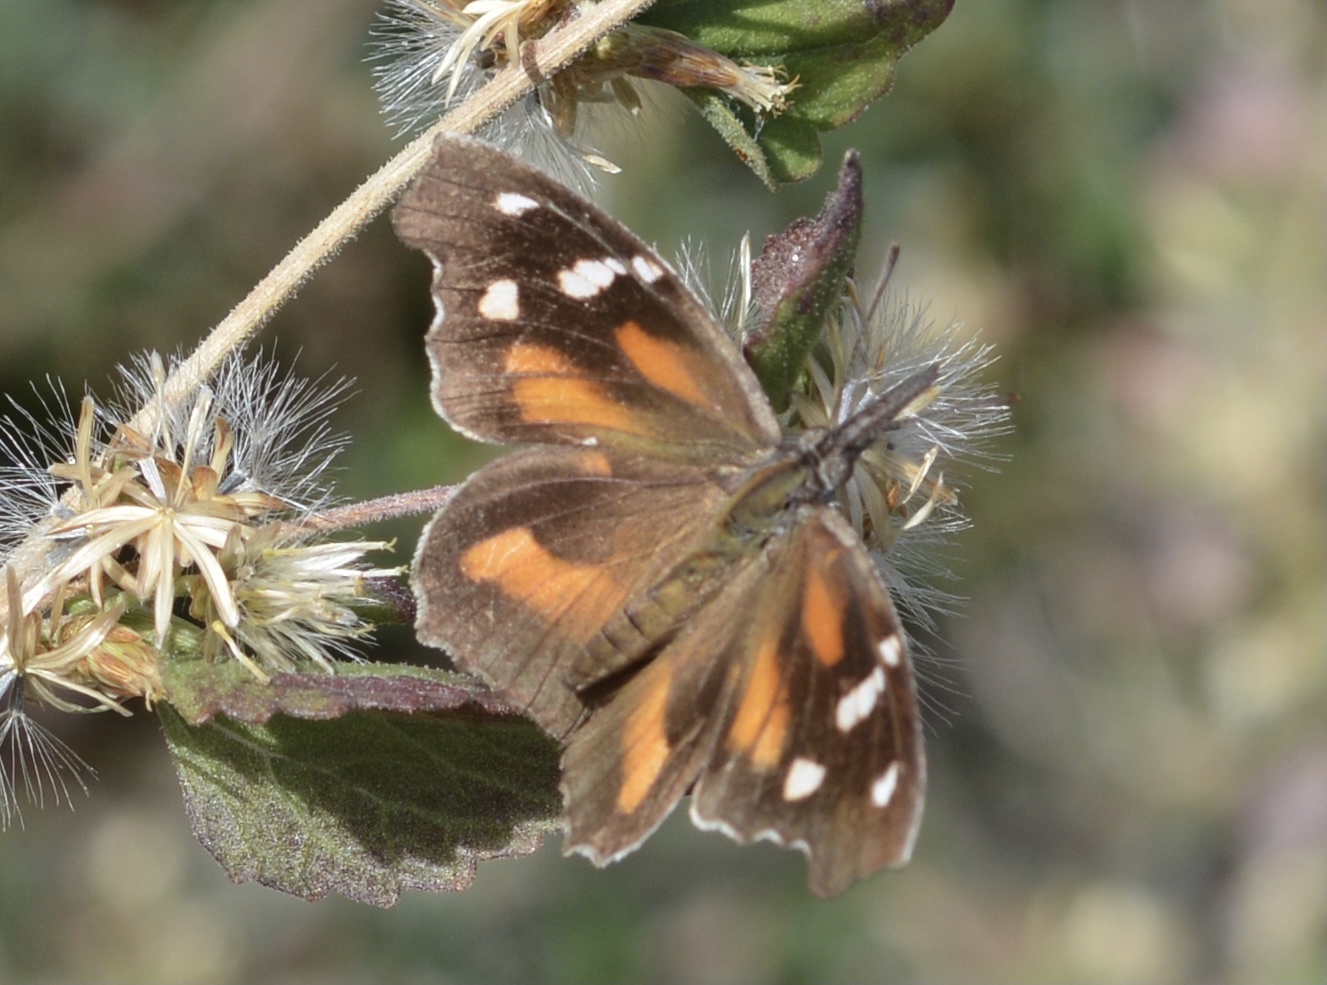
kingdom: Animalia
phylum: Arthropoda
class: Insecta
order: Lepidoptera
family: Nymphalidae
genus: Libytheana
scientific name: Libytheana carinenta
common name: American snout
